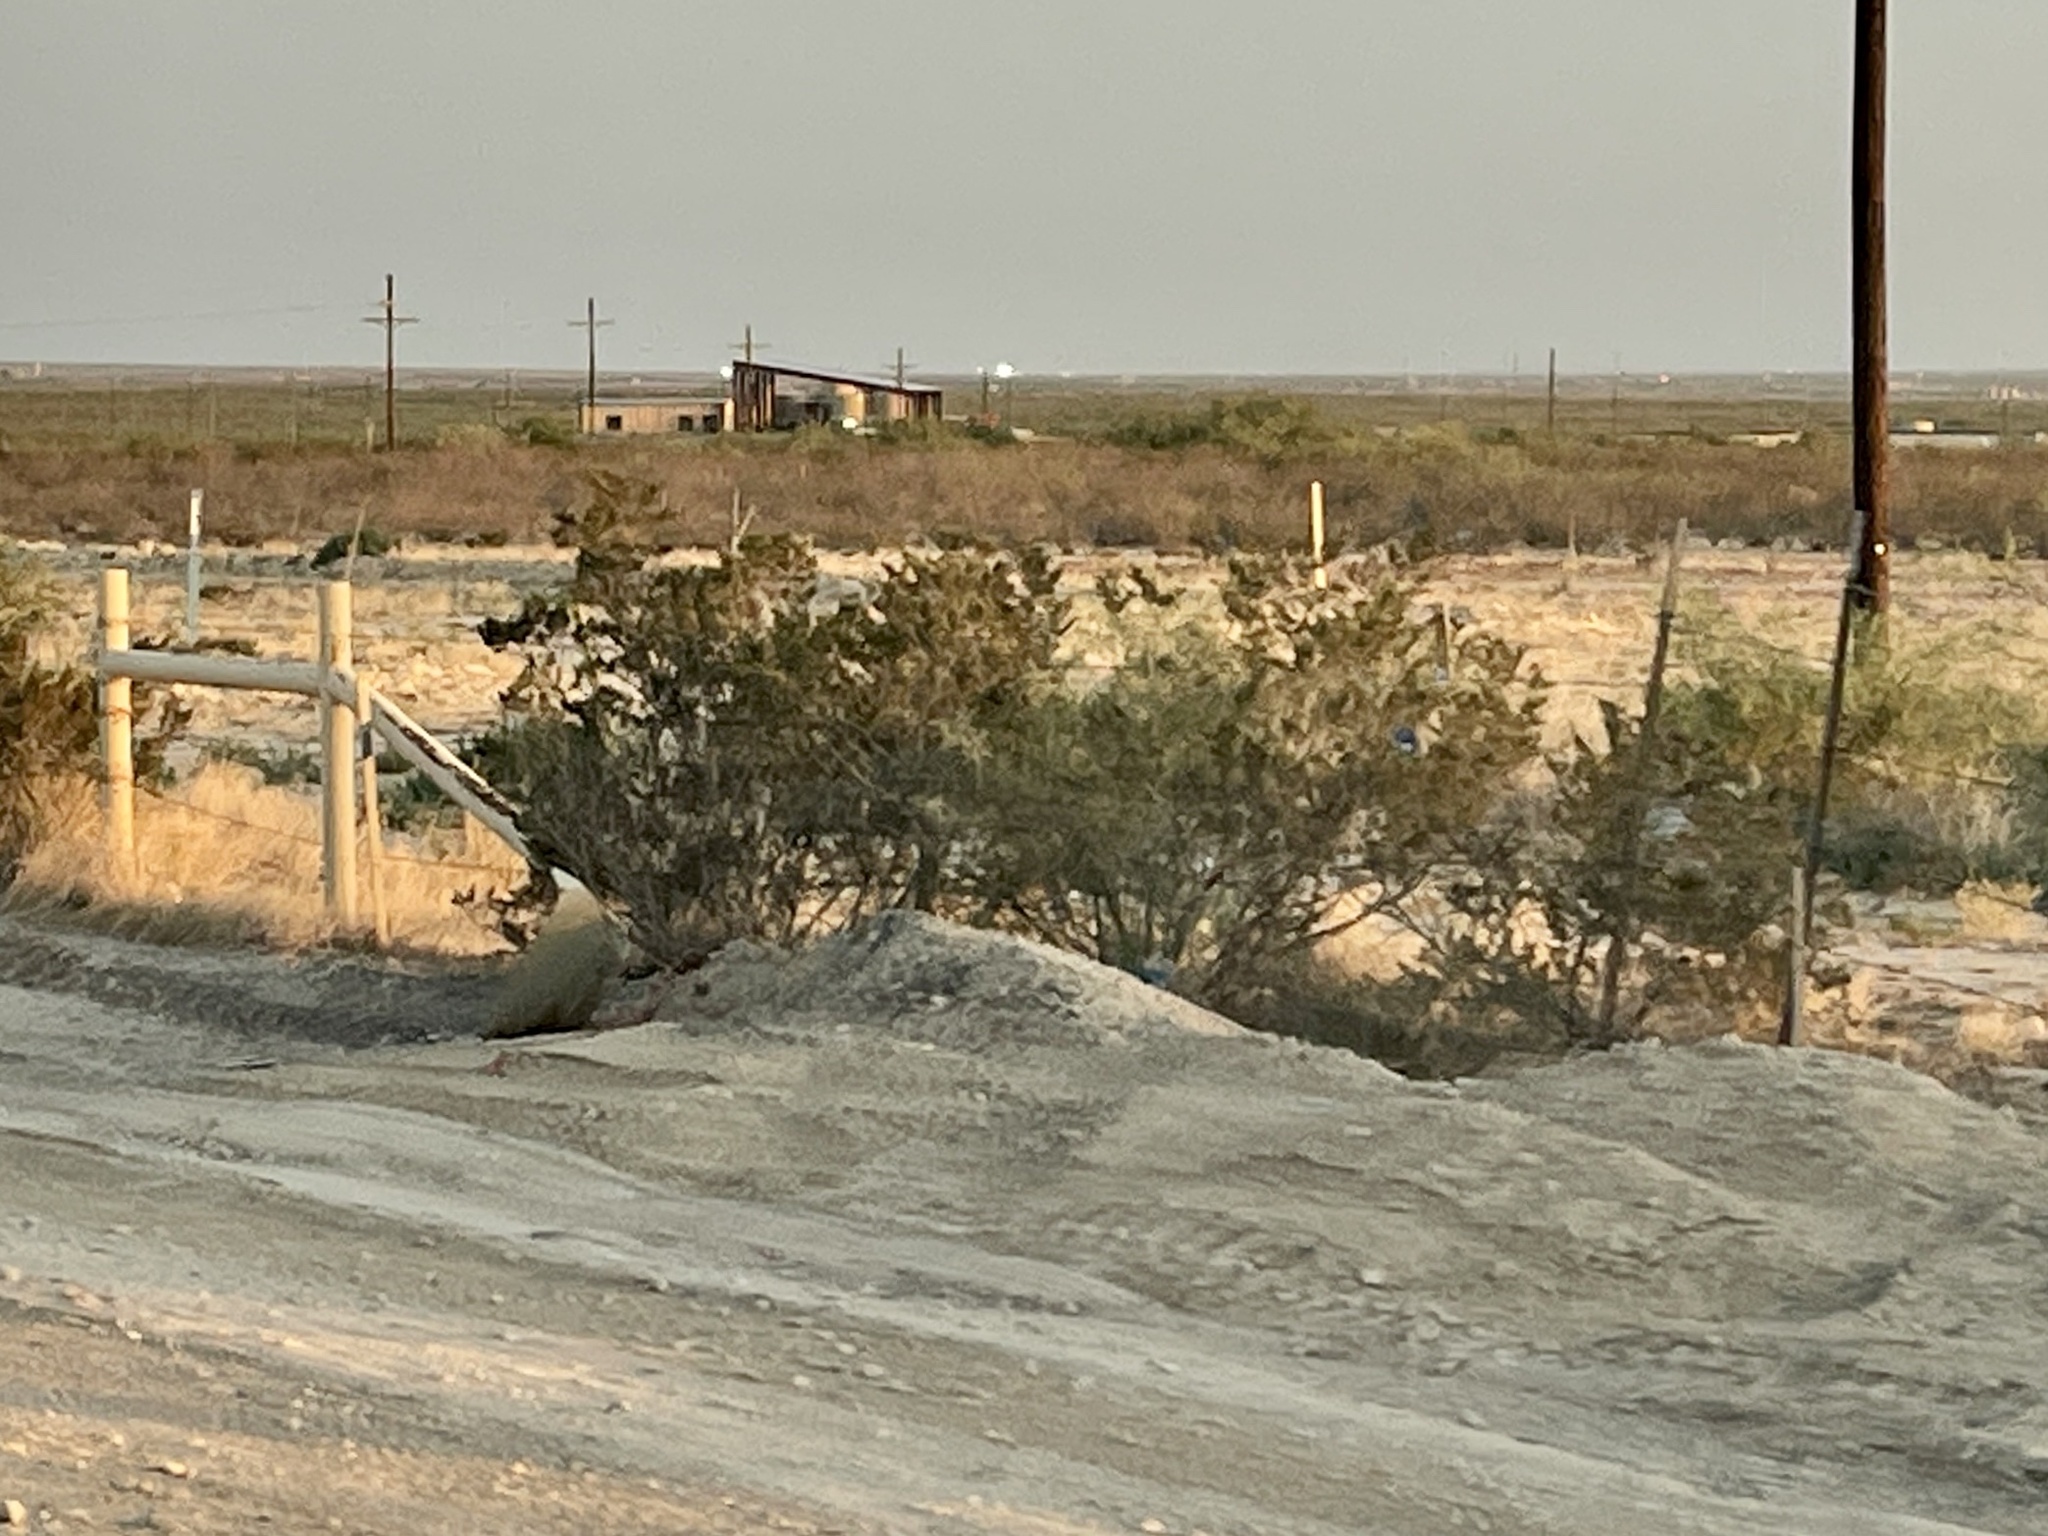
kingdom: Plantae
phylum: Tracheophyta
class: Magnoliopsida
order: Zygophyllales
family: Zygophyllaceae
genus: Larrea
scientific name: Larrea tridentata
